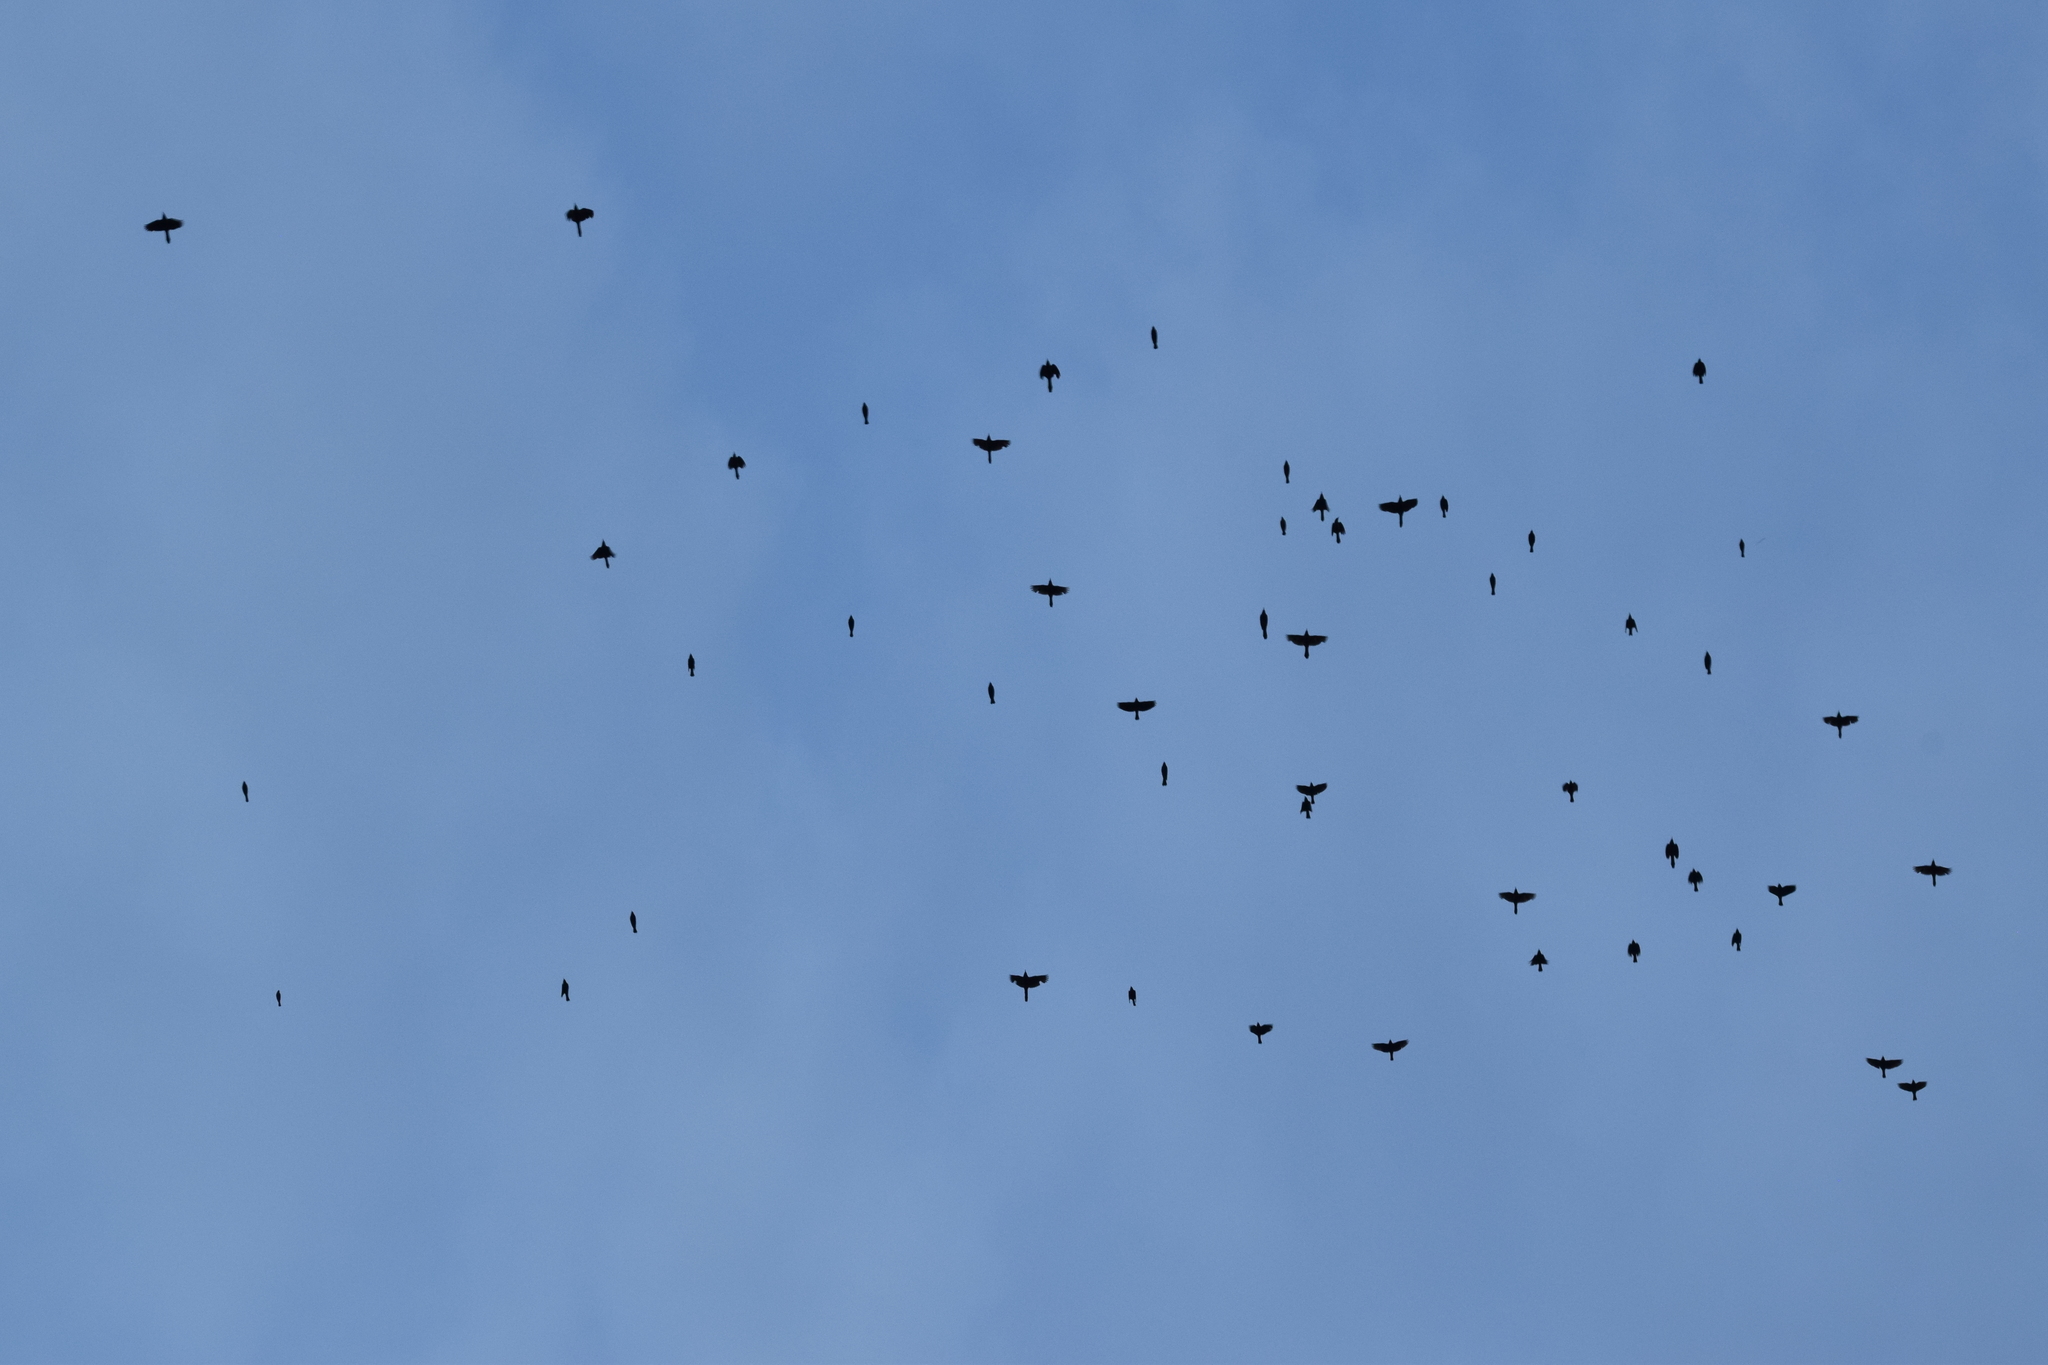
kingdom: Animalia
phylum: Chordata
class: Aves
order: Passeriformes
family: Icteridae
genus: Quiscalus
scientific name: Quiscalus quiscula
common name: Common grackle
